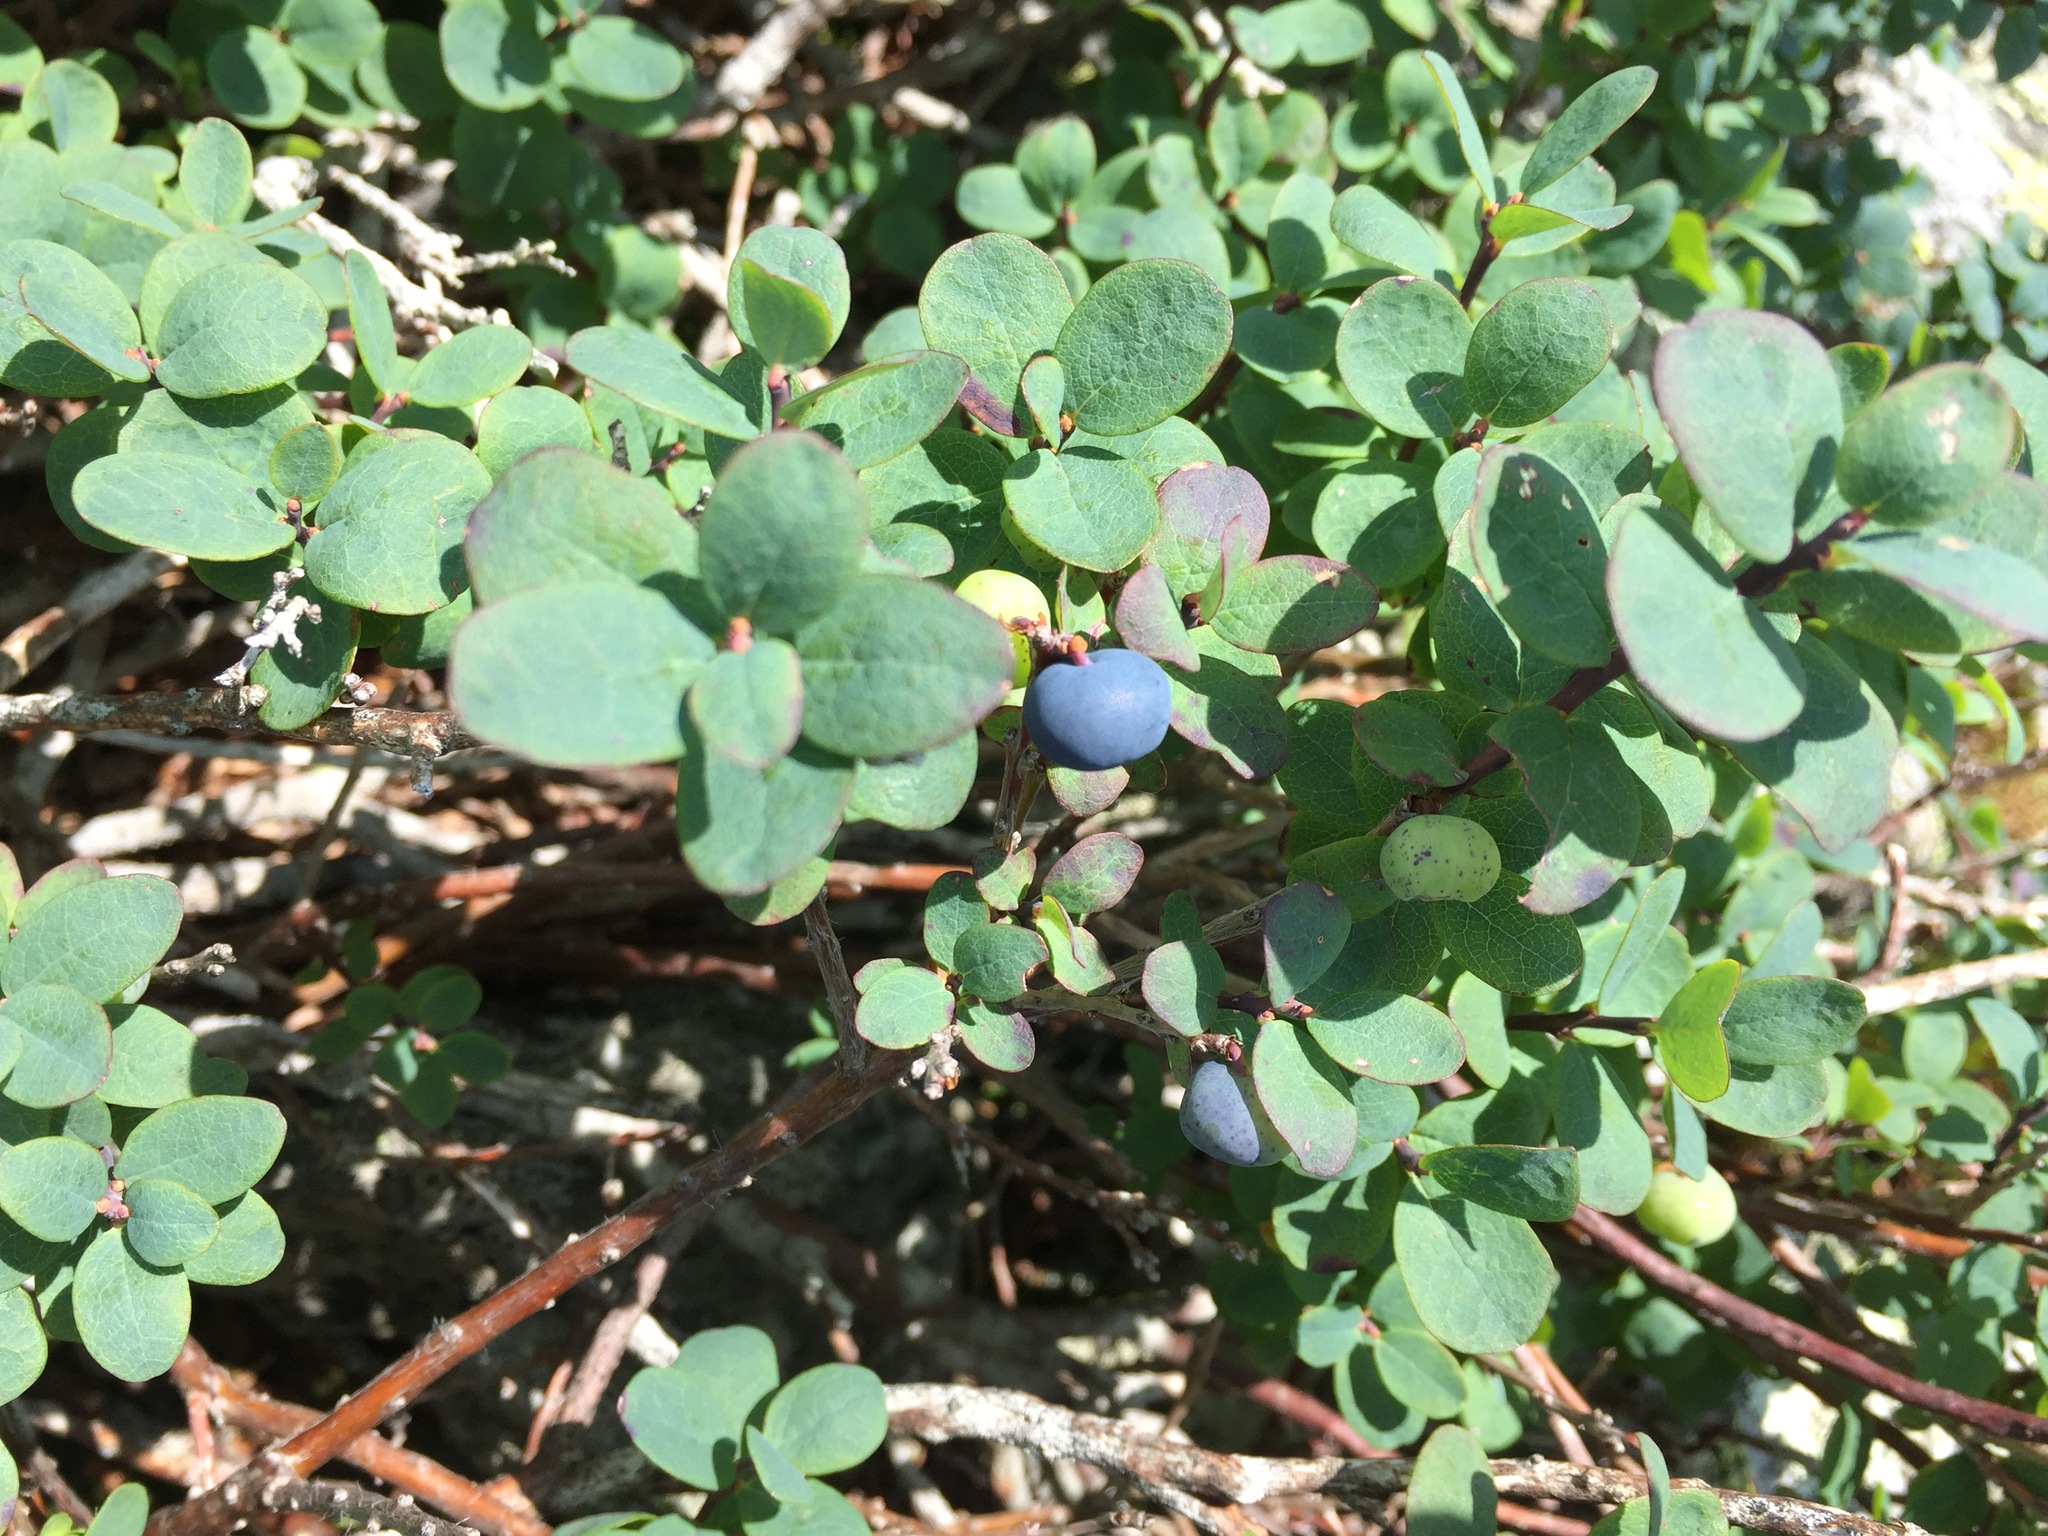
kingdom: Plantae
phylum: Tracheophyta
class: Magnoliopsida
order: Ericales
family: Ericaceae
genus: Vaccinium
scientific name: Vaccinium uliginosum
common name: Bog bilberry
